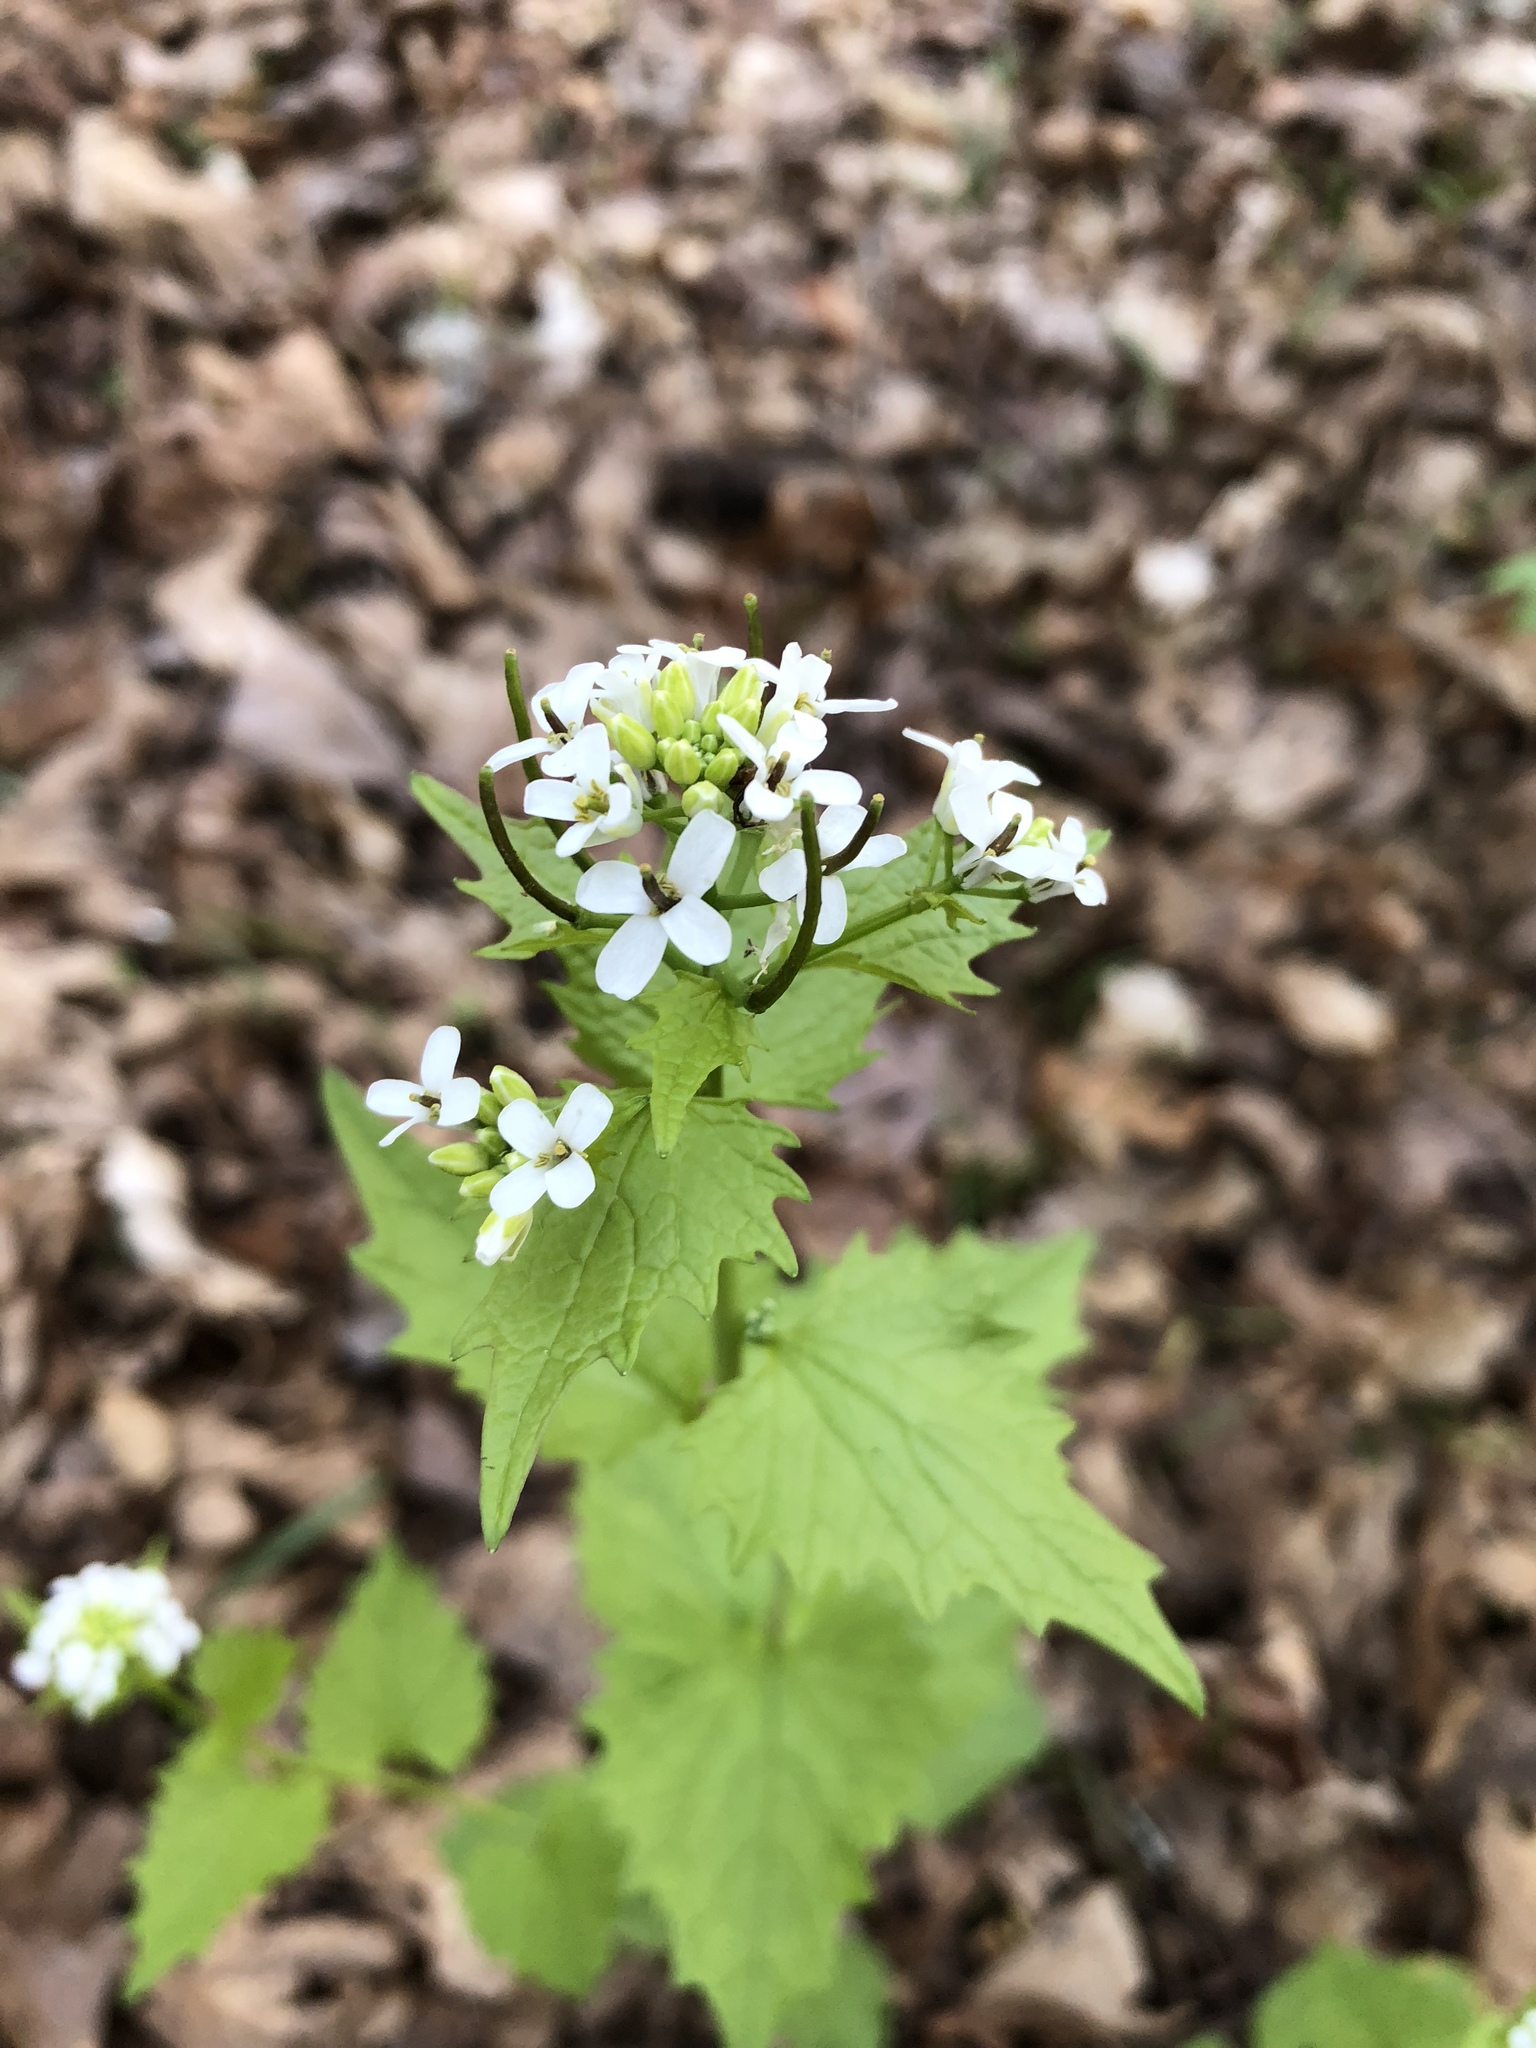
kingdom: Plantae
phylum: Tracheophyta
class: Magnoliopsida
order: Brassicales
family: Brassicaceae
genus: Alliaria
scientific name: Alliaria petiolata
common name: Garlic mustard
